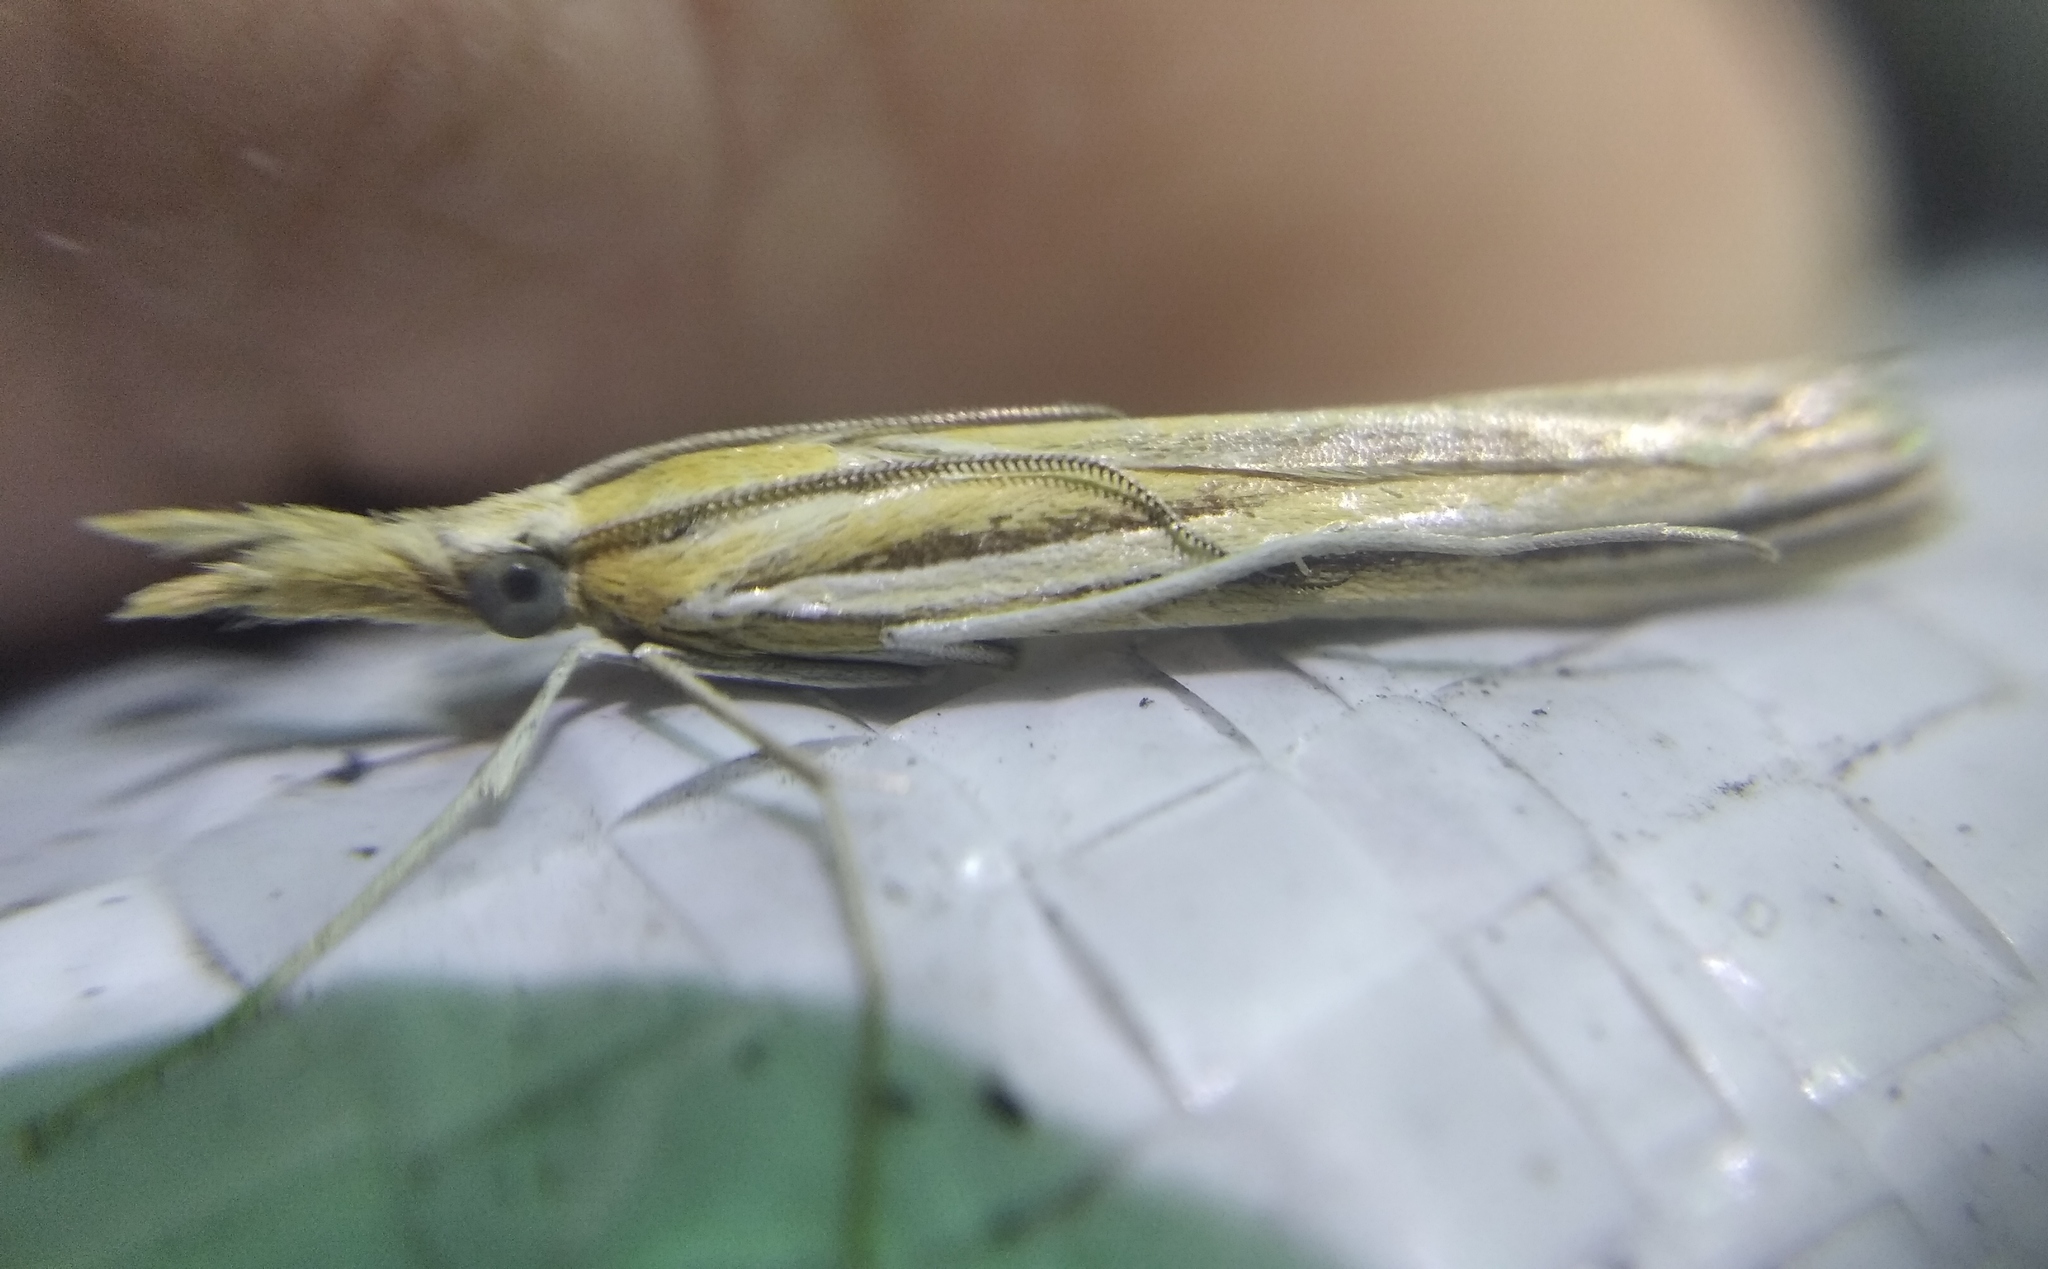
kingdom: Animalia
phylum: Arthropoda
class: Insecta
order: Lepidoptera
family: Crambidae
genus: Agriphila
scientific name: Agriphila deliella
